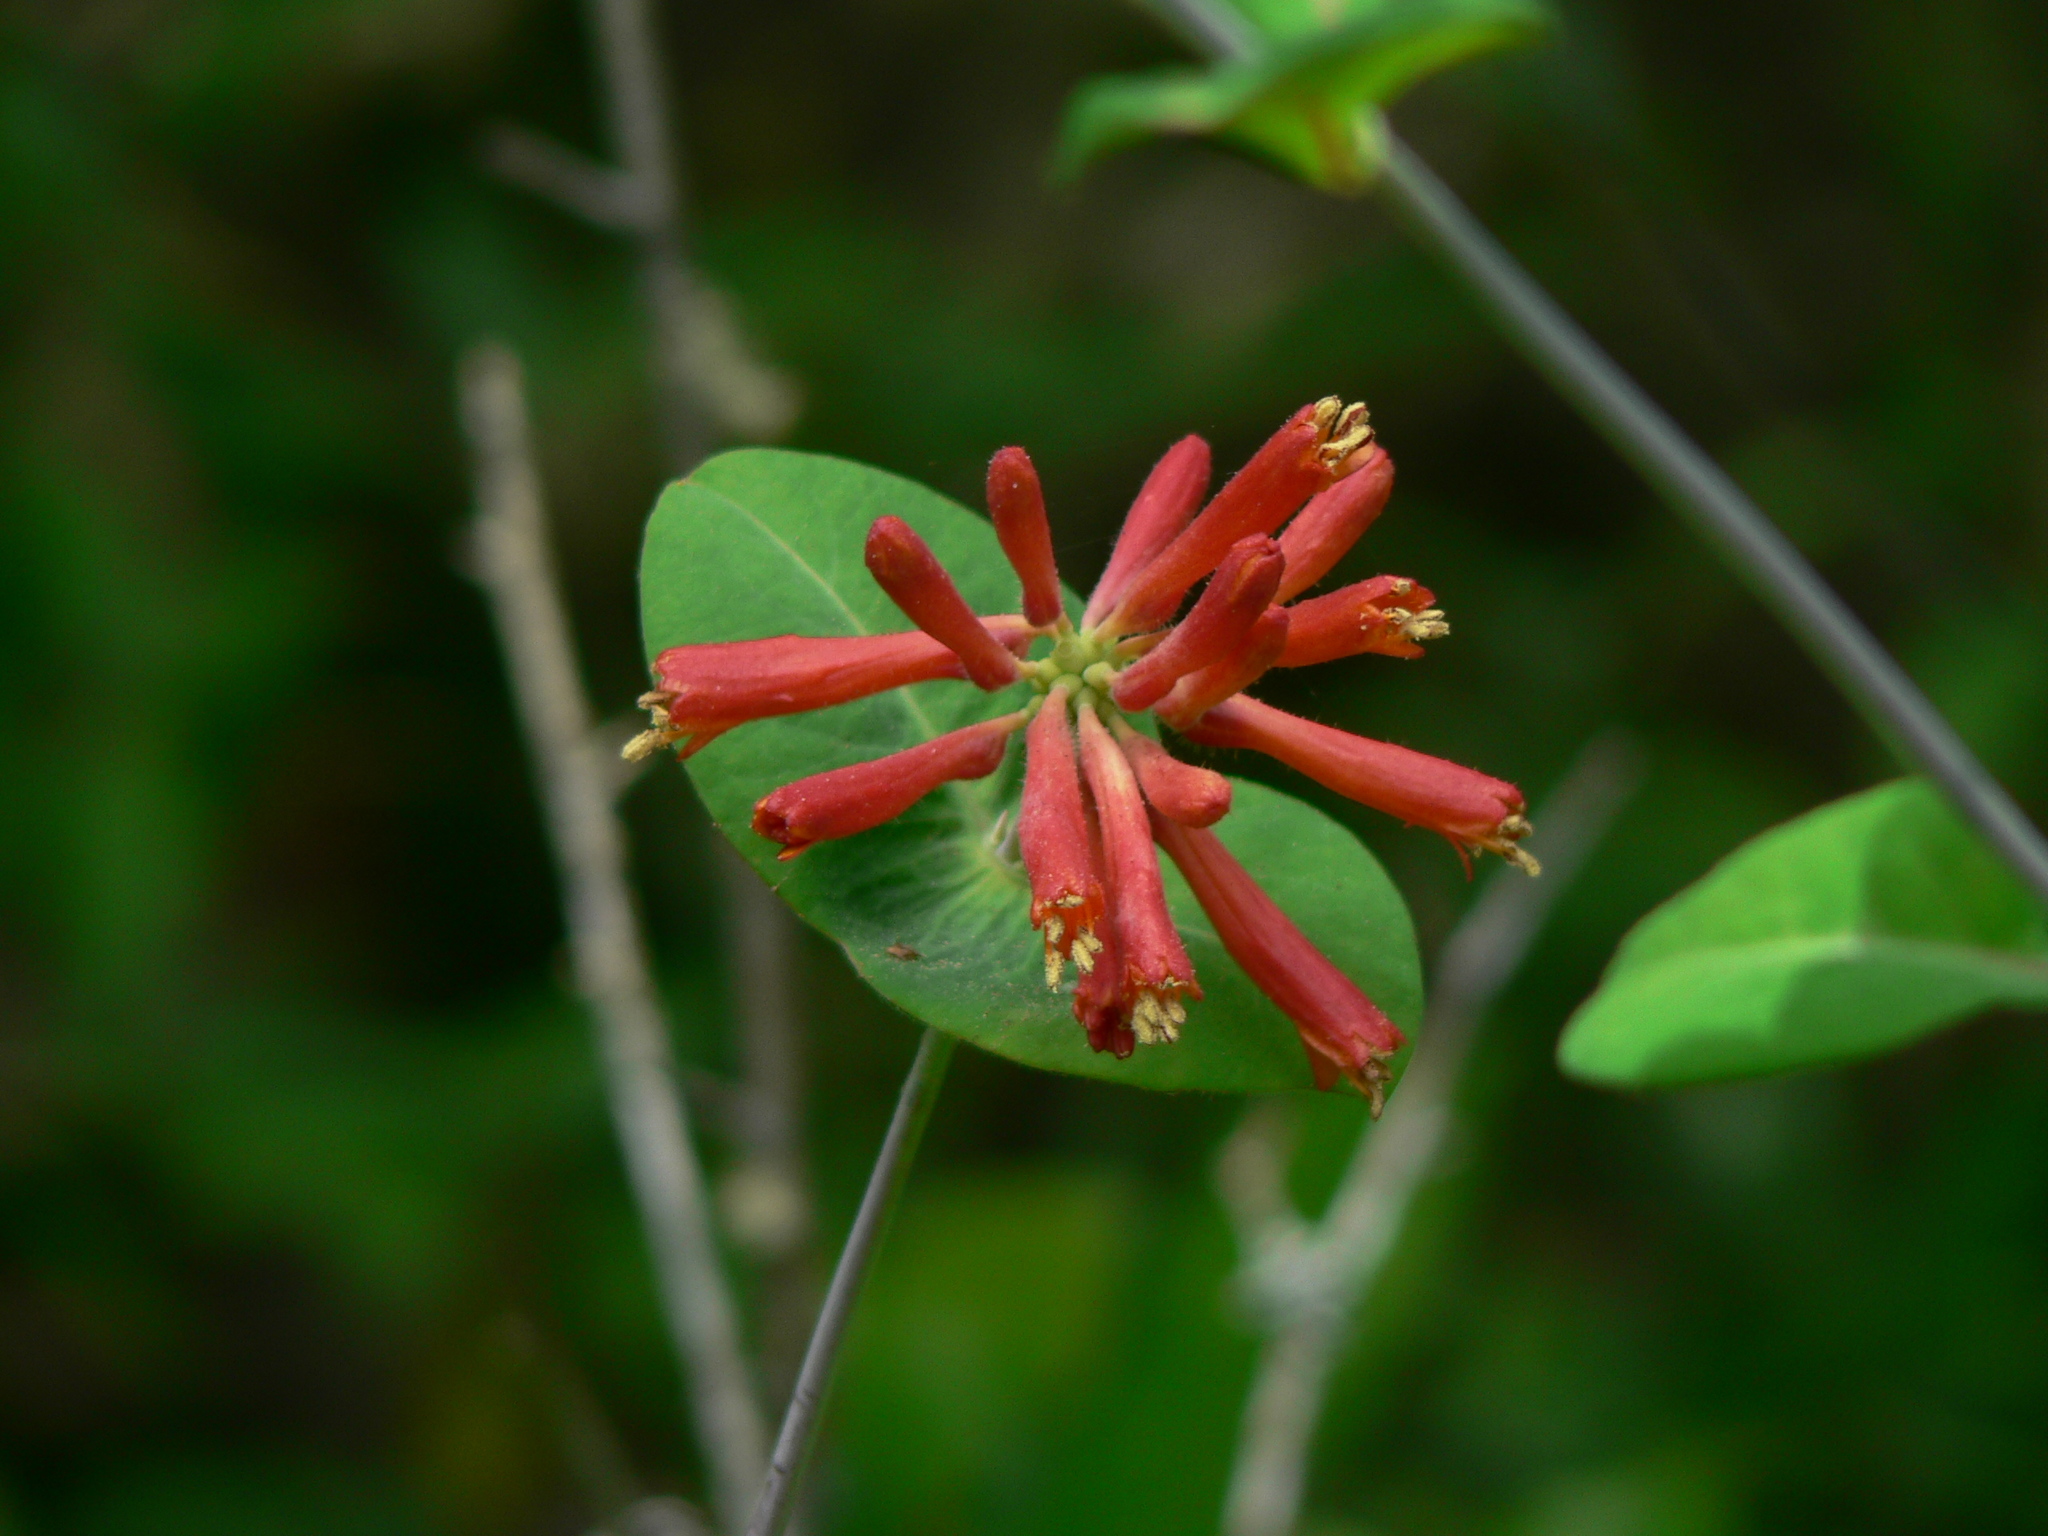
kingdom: Plantae
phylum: Tracheophyta
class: Magnoliopsida
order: Dipsacales
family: Caprifoliaceae
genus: Lonicera
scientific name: Lonicera ciliosa
